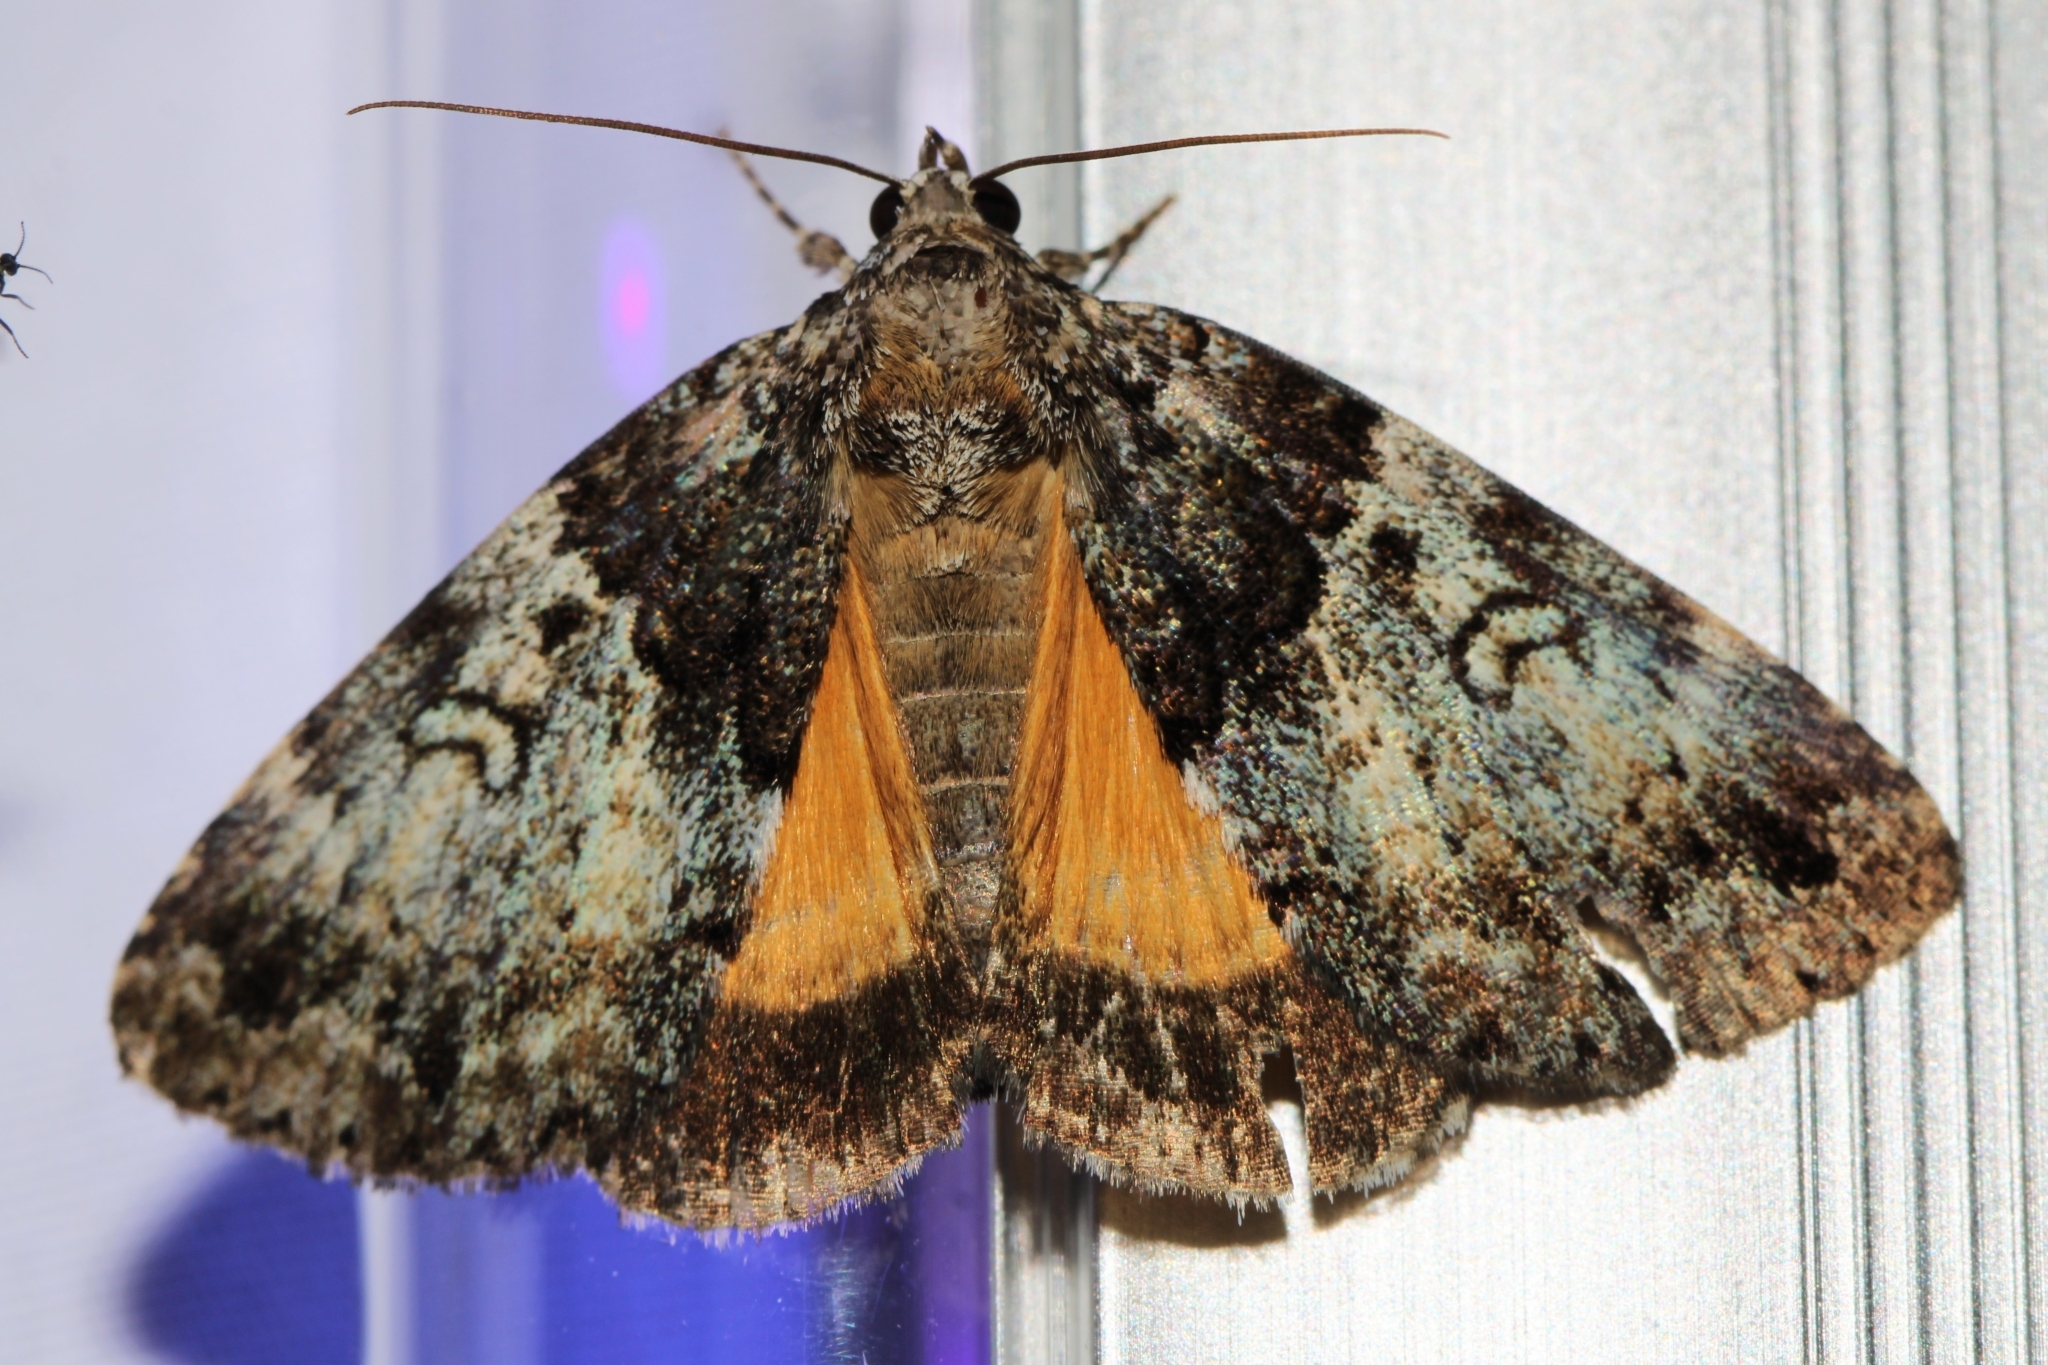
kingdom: Animalia
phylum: Arthropoda
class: Insecta
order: Lepidoptera
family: Erebidae
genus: Allotria
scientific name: Allotria elonympha
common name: False underwing
